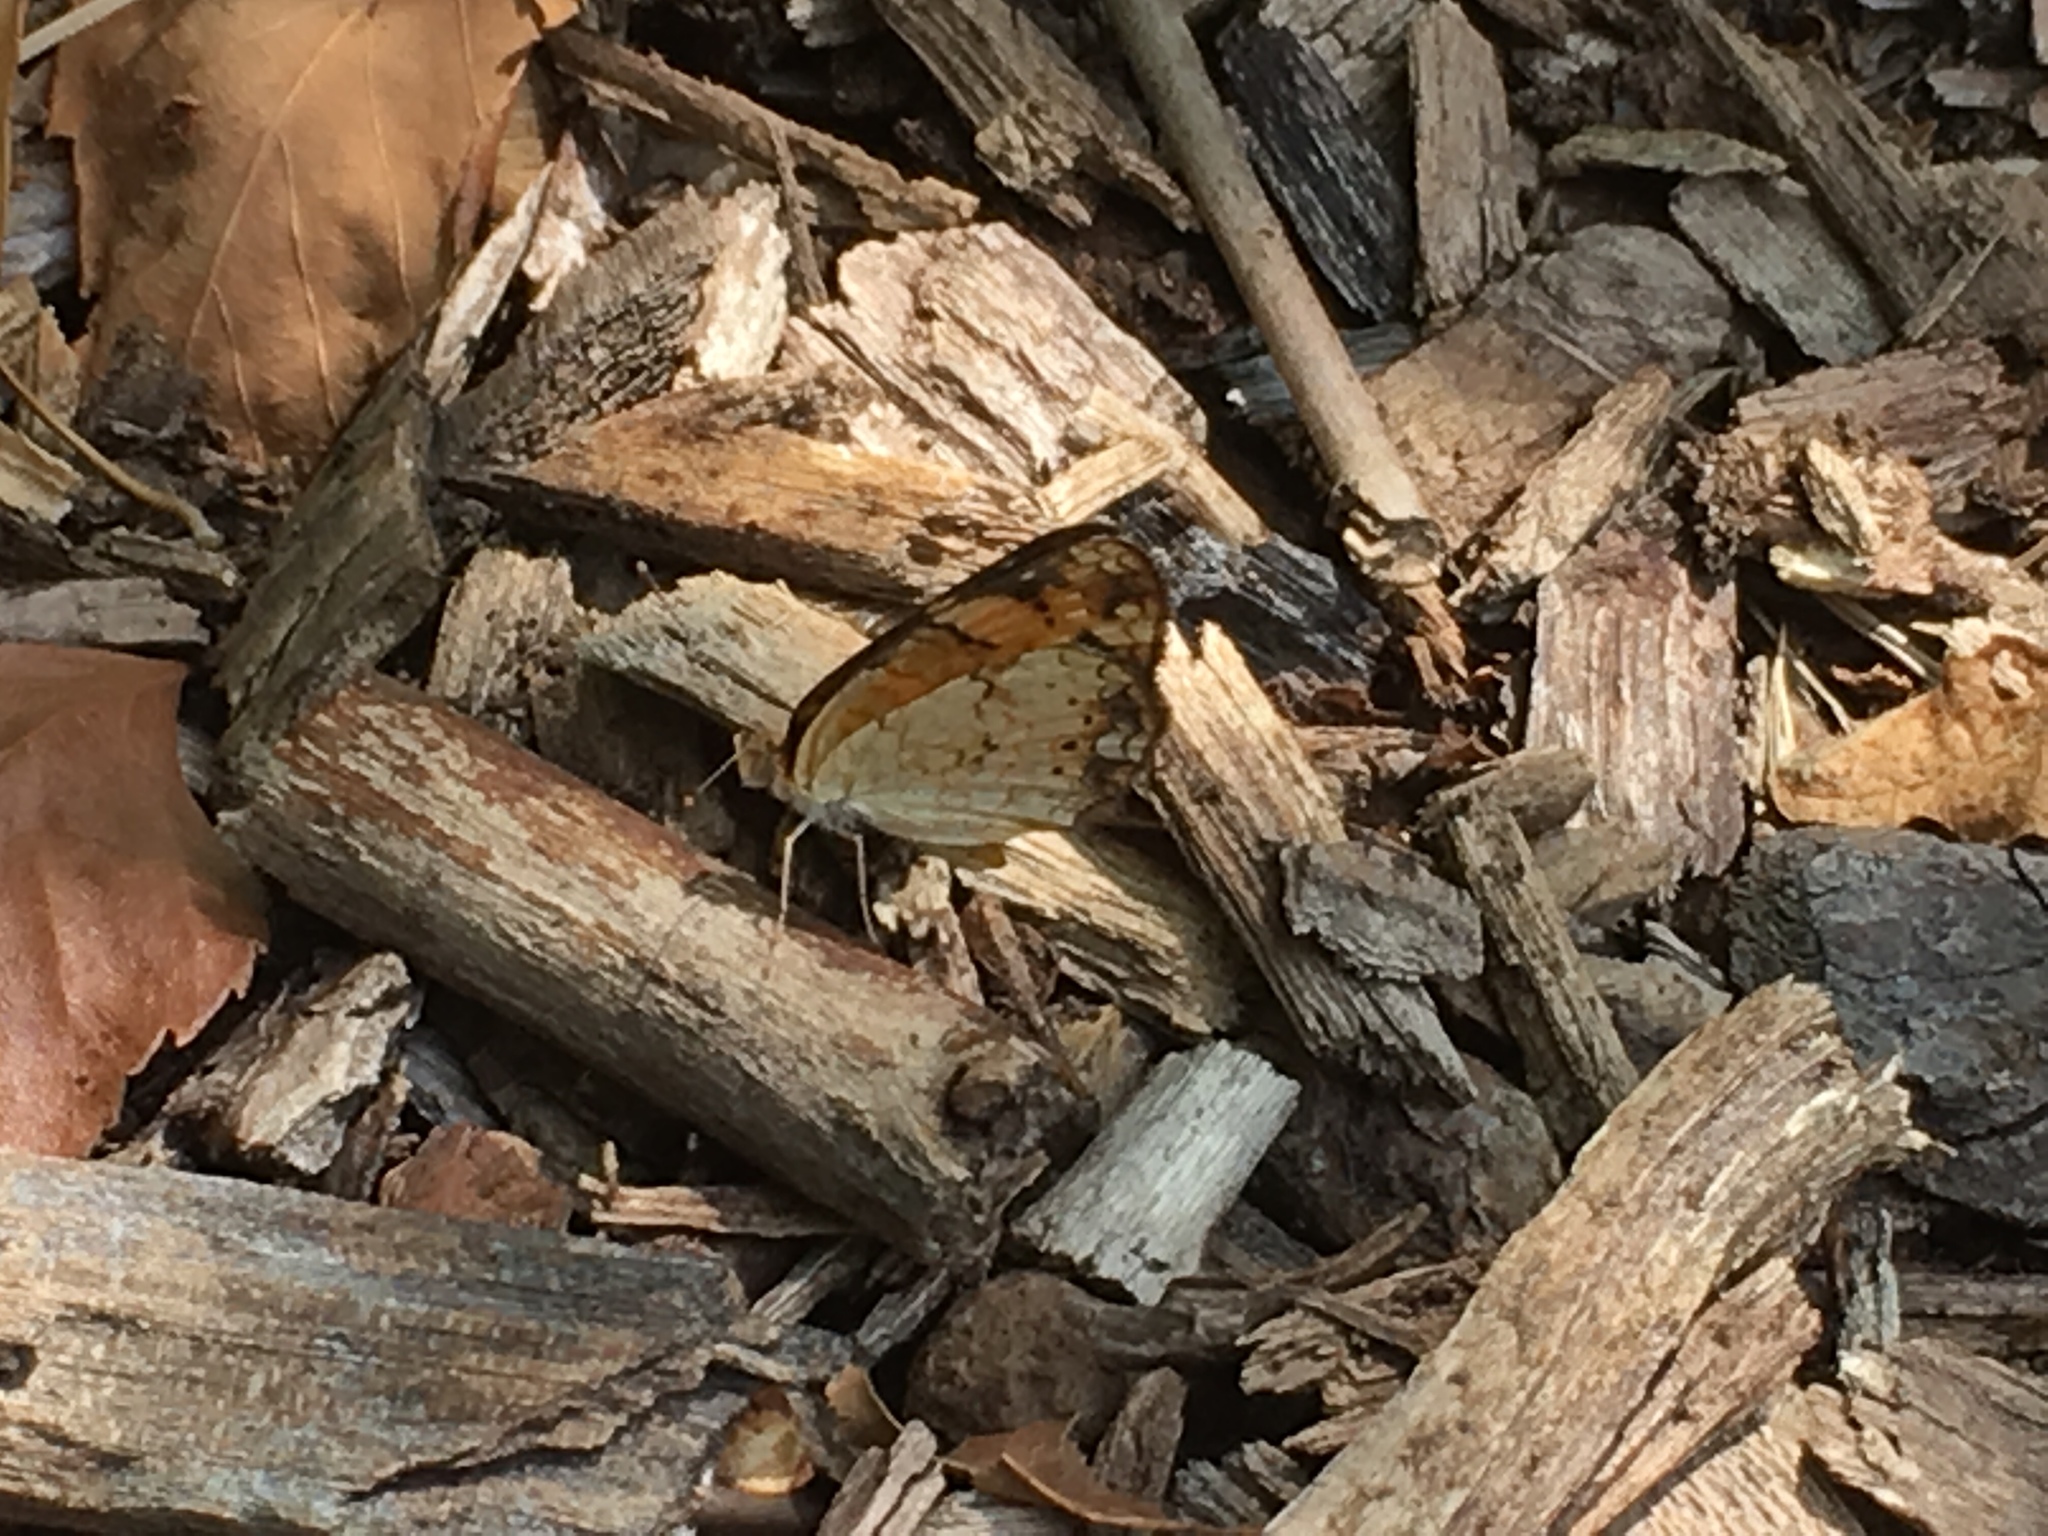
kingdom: Animalia
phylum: Arthropoda
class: Insecta
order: Lepidoptera
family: Nymphalidae
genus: Phyciodes
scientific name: Phyciodes tharos
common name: Pearl crescent
